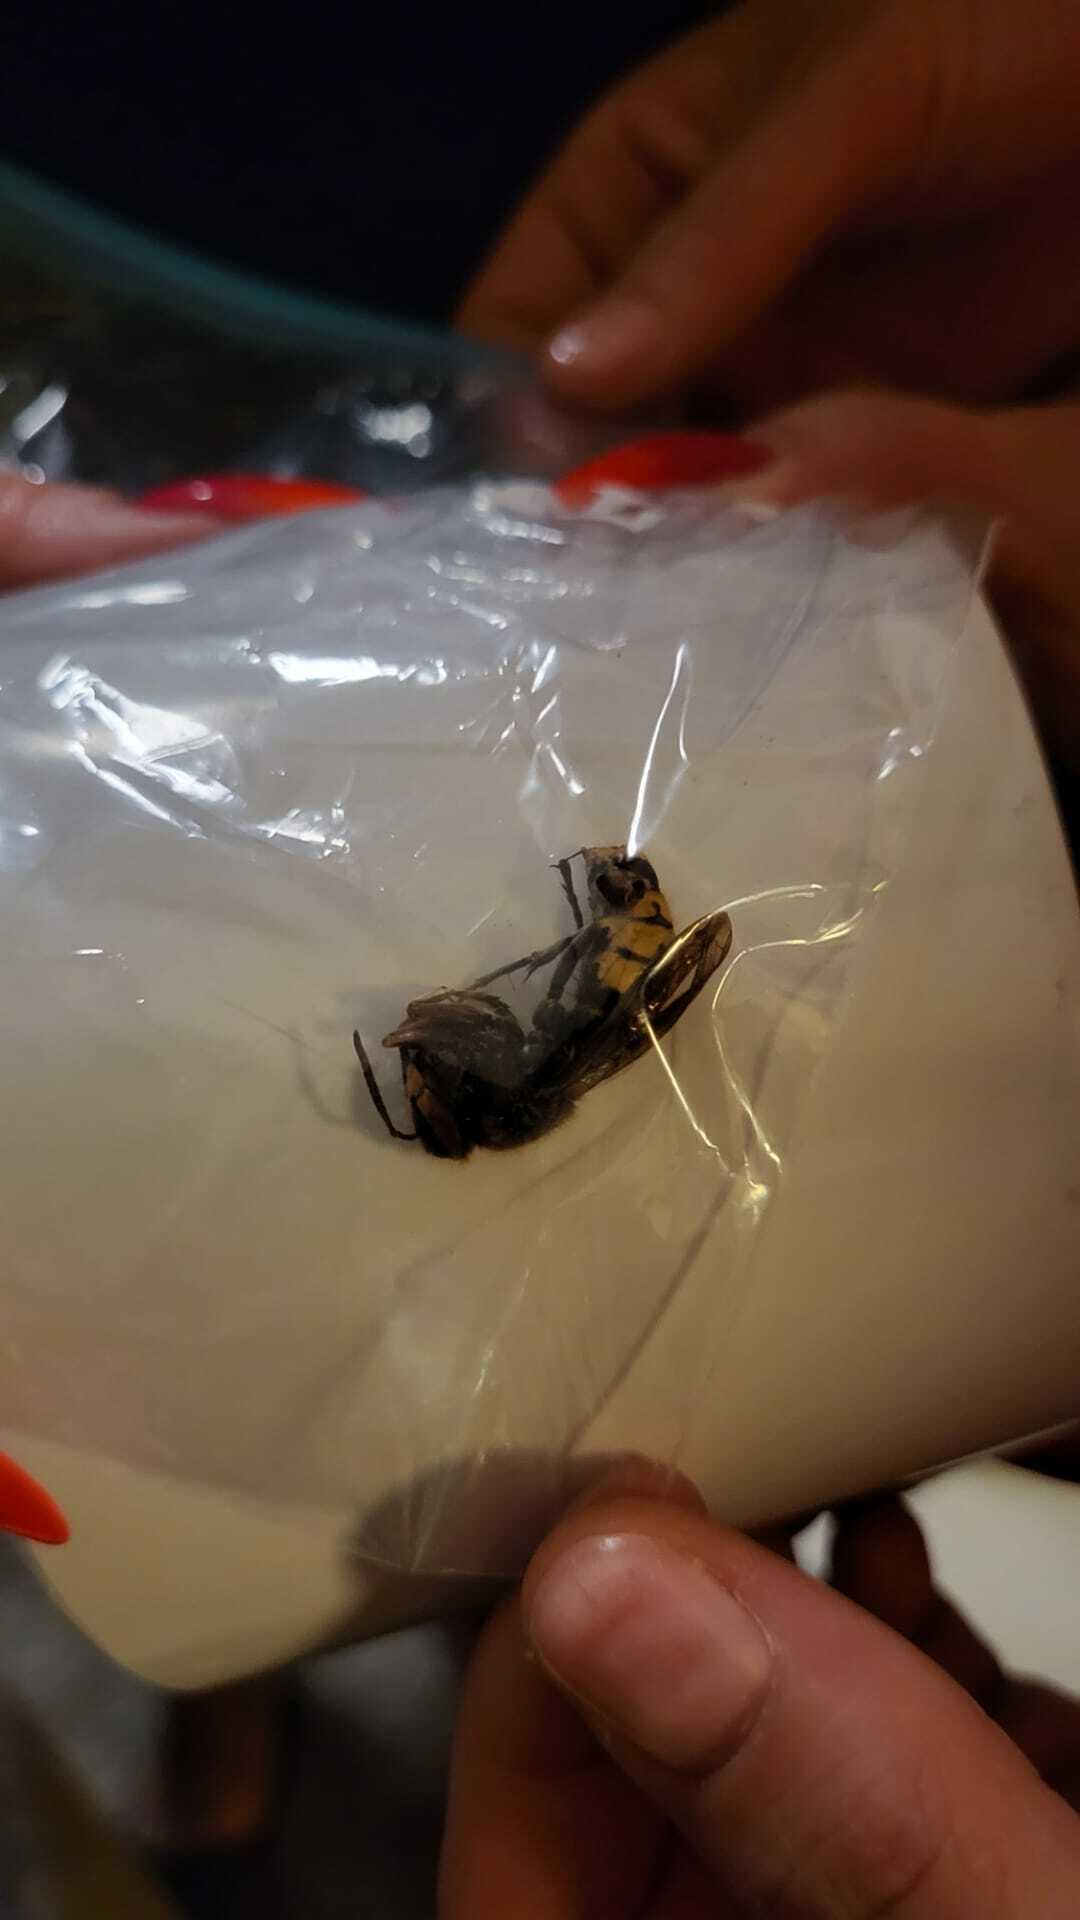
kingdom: Animalia
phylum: Arthropoda
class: Insecta
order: Hymenoptera
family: Vespidae
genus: Vespa
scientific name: Vespa crabro
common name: Hornet
